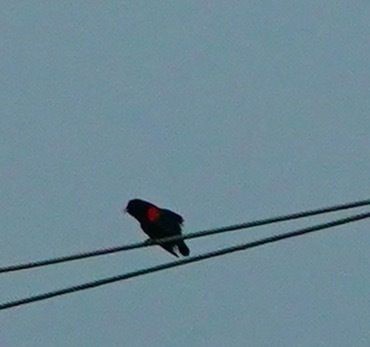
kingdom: Animalia
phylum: Chordata
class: Aves
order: Passeriformes
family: Icteridae
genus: Agelaius
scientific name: Agelaius phoeniceus
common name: Red-winged blackbird
